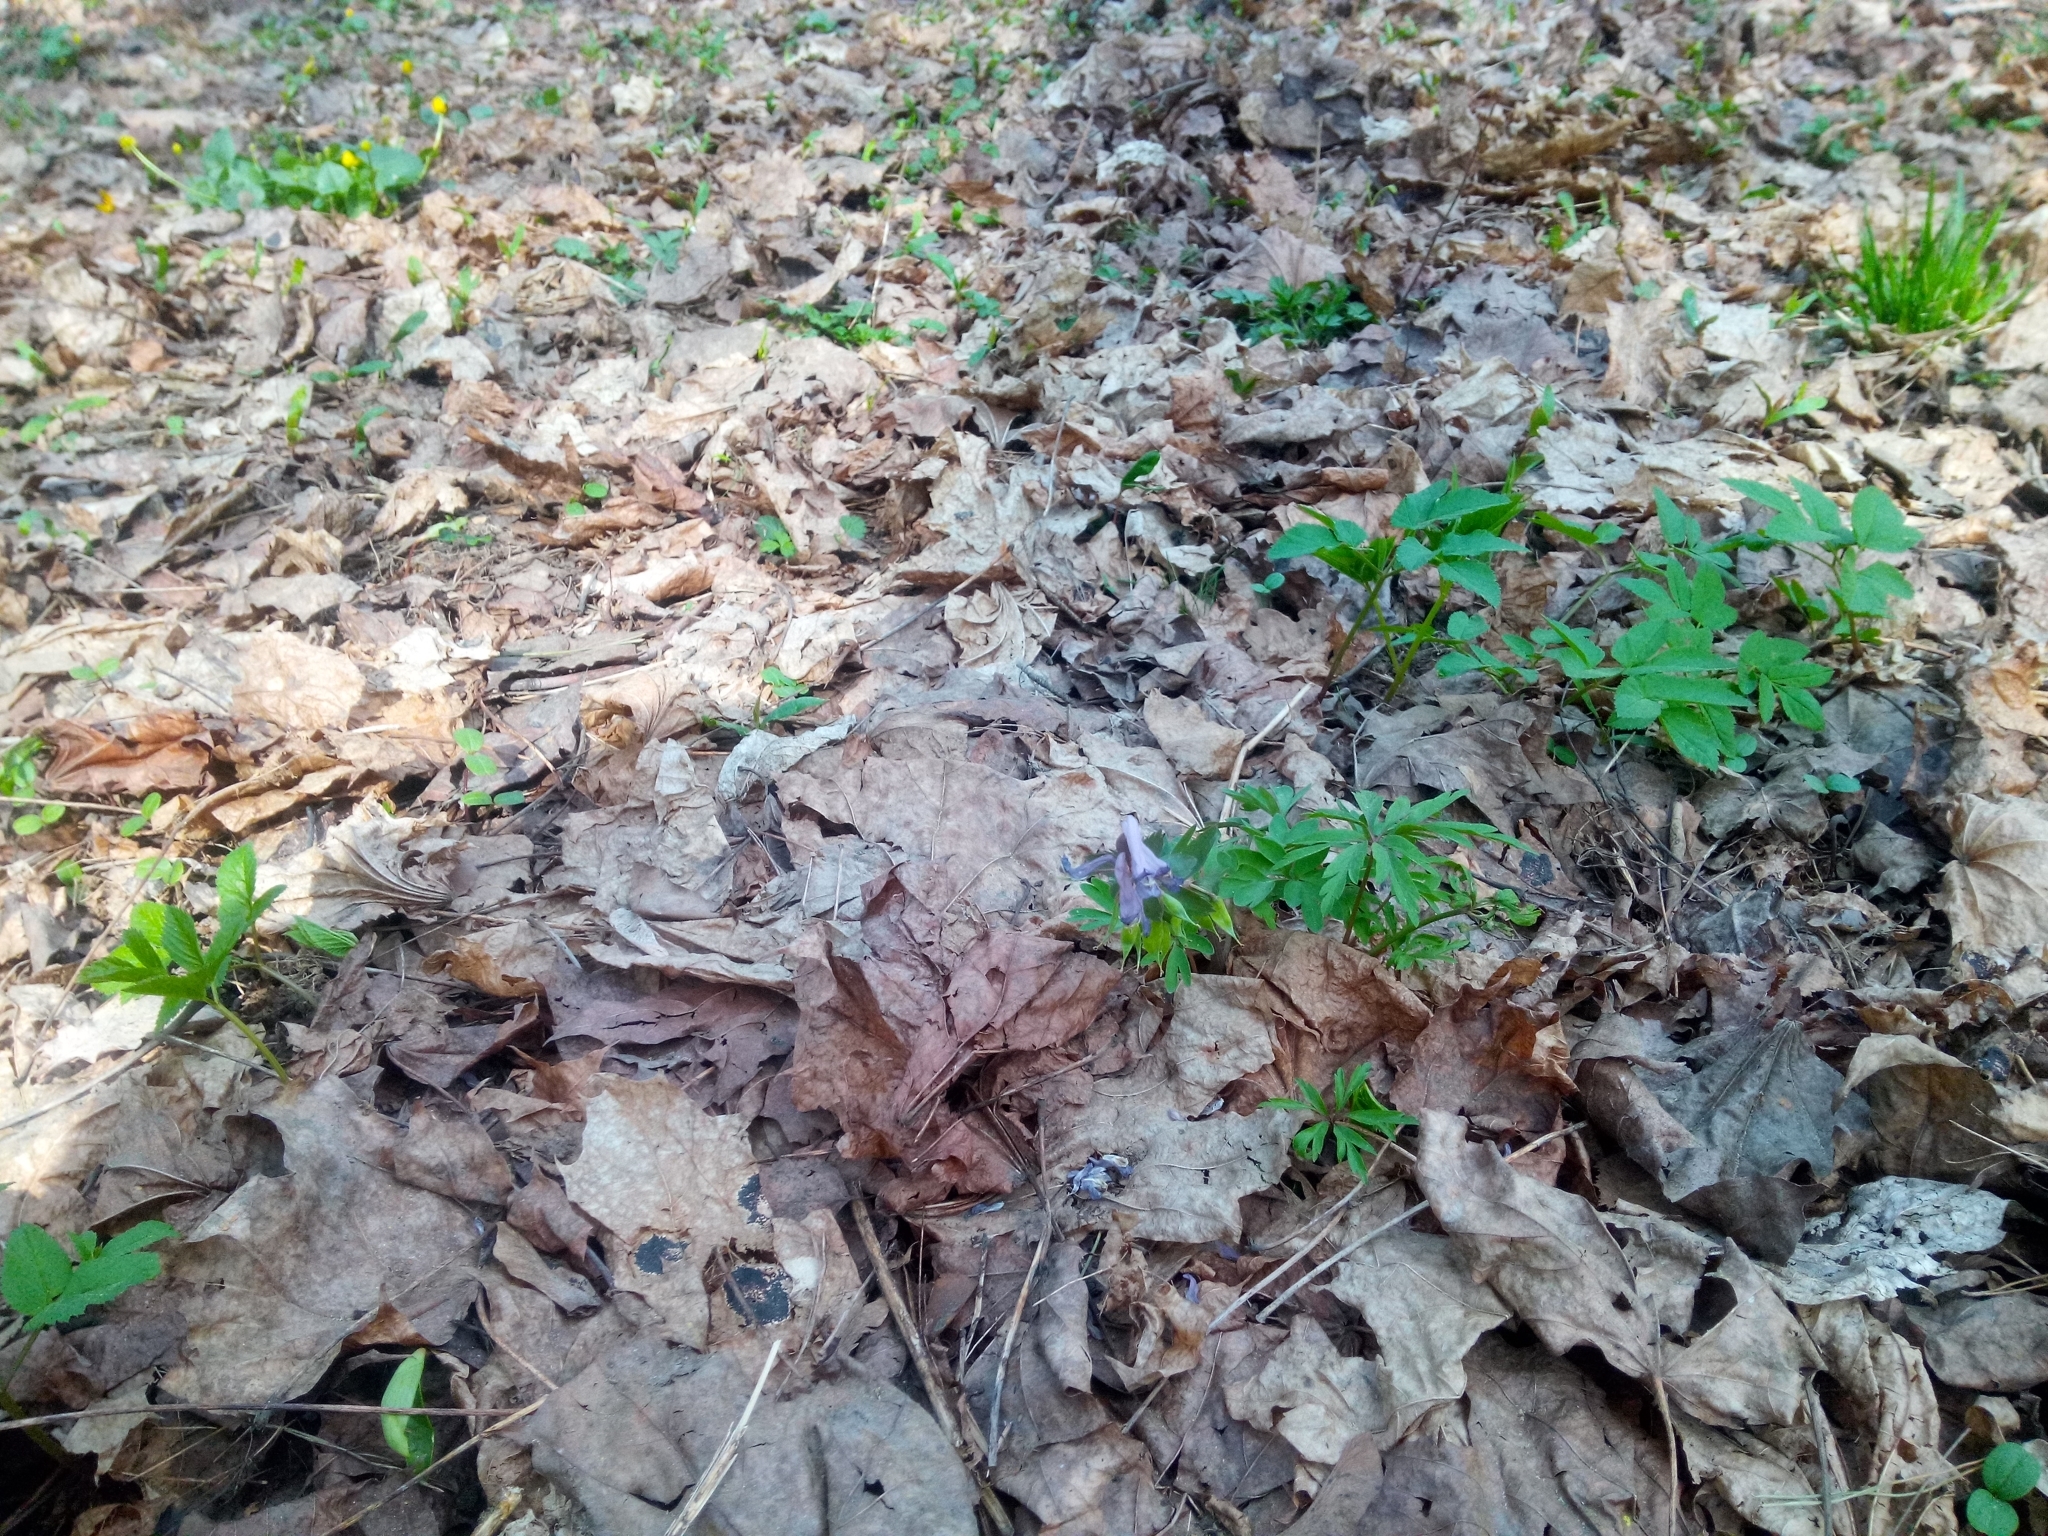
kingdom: Plantae
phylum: Tracheophyta
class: Magnoliopsida
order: Ranunculales
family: Papaveraceae
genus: Corydalis
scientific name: Corydalis solida
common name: Bird-in-a-bush
